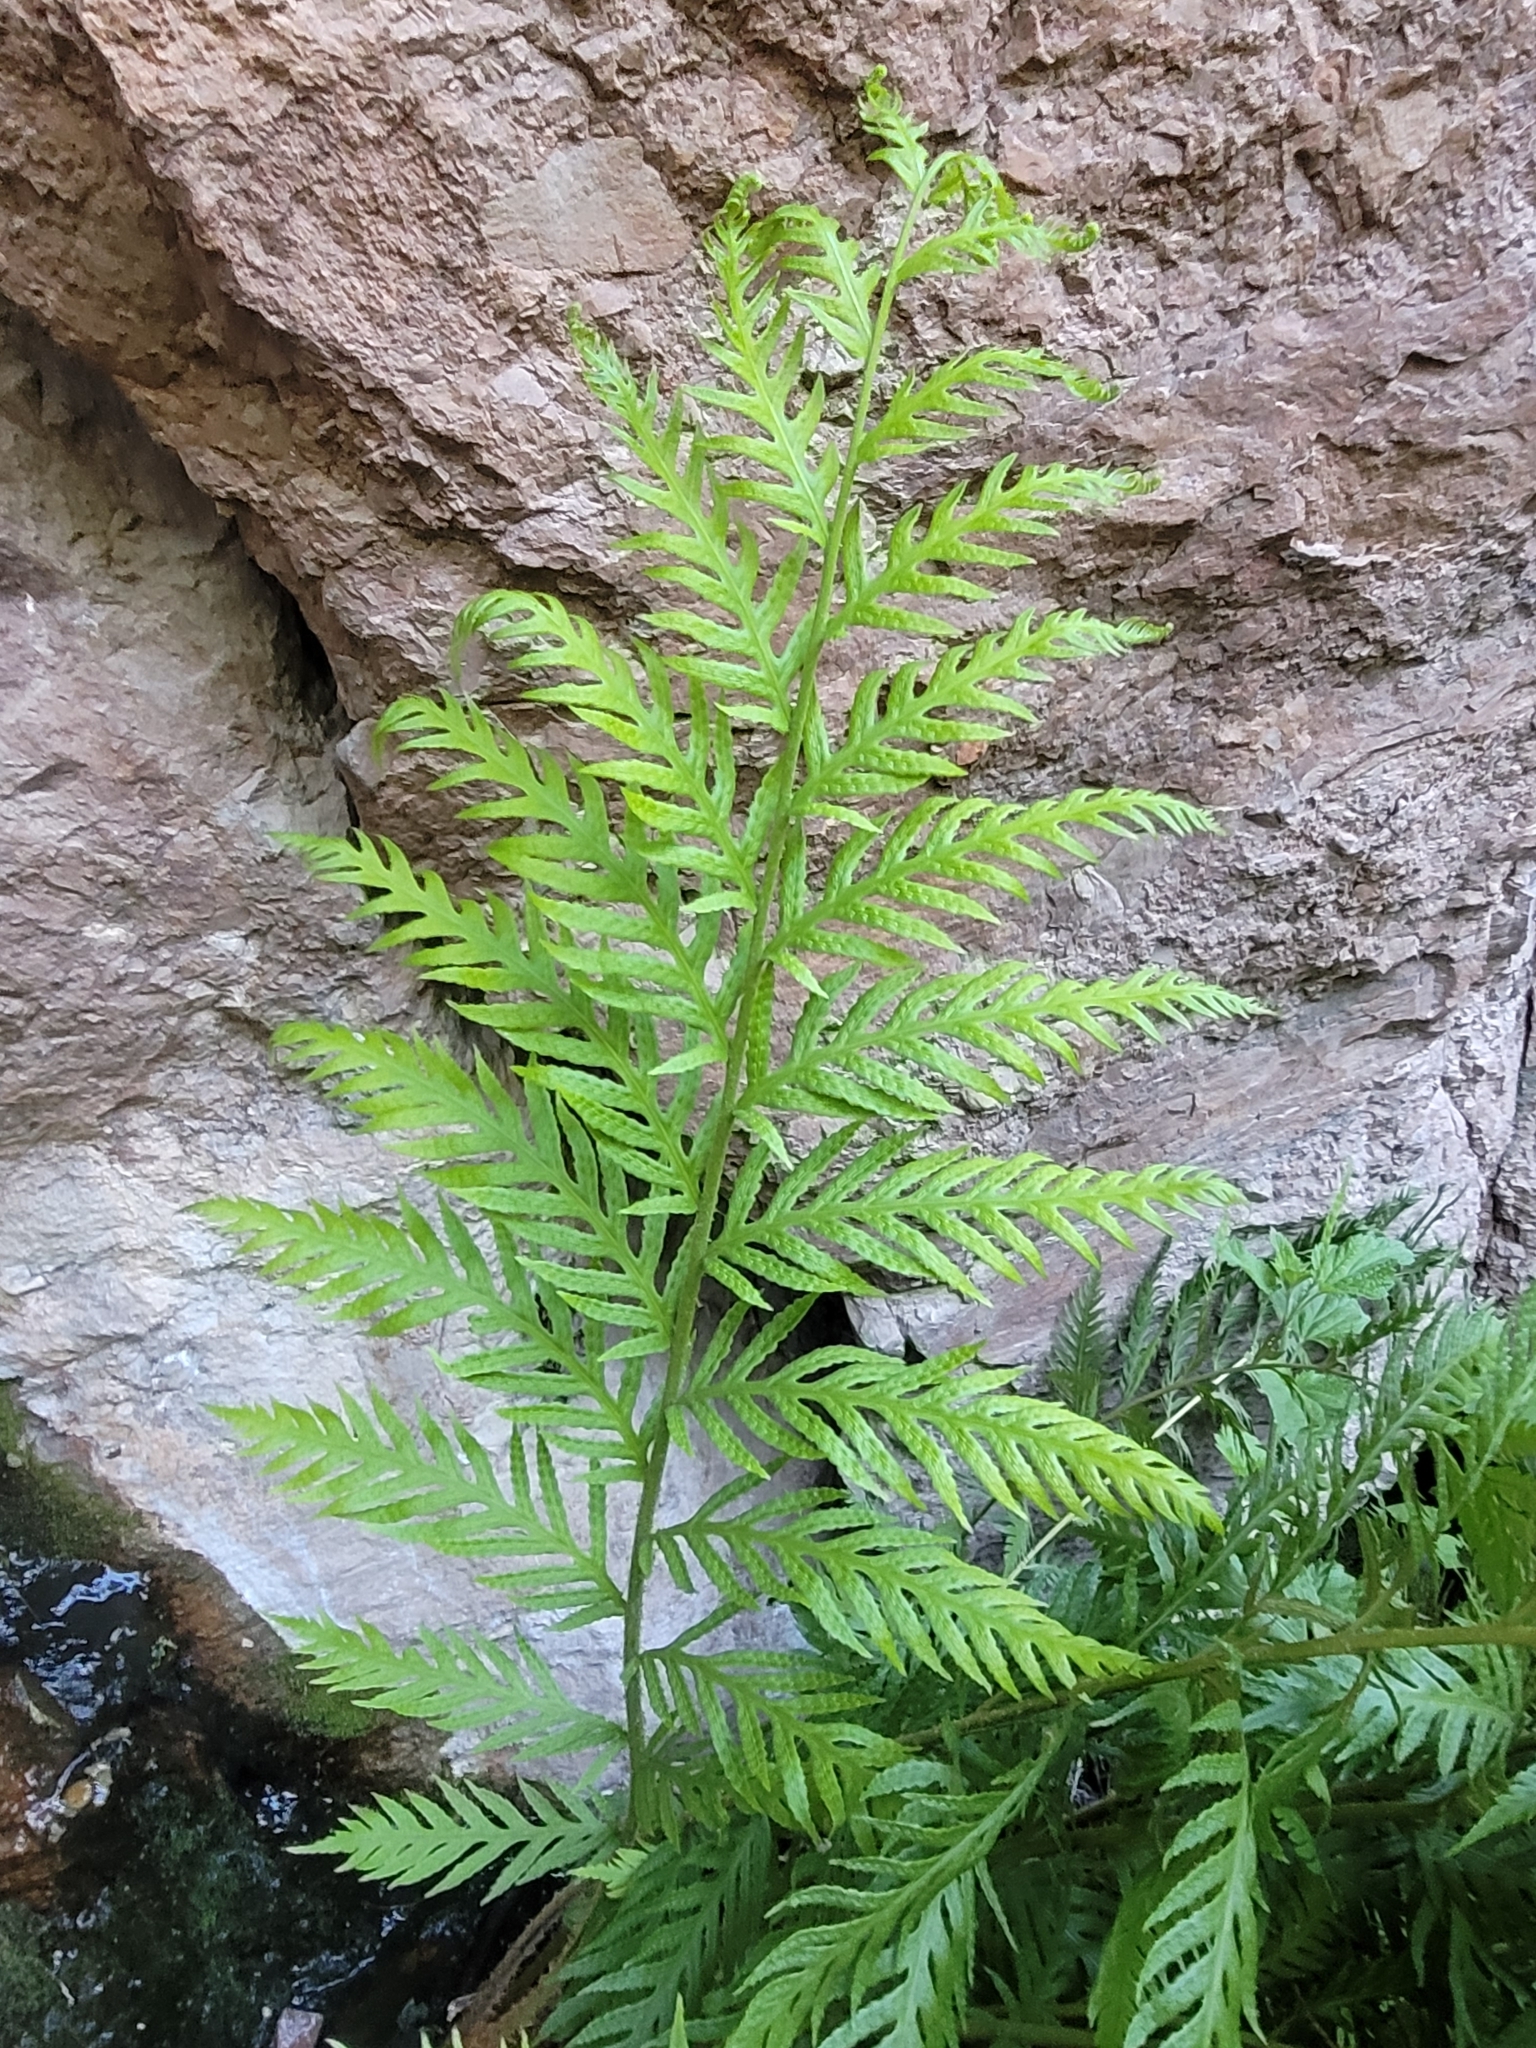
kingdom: Plantae
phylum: Tracheophyta
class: Polypodiopsida
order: Polypodiales
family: Blechnaceae
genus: Woodwardia
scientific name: Woodwardia fimbriata
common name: Giant chain fern
